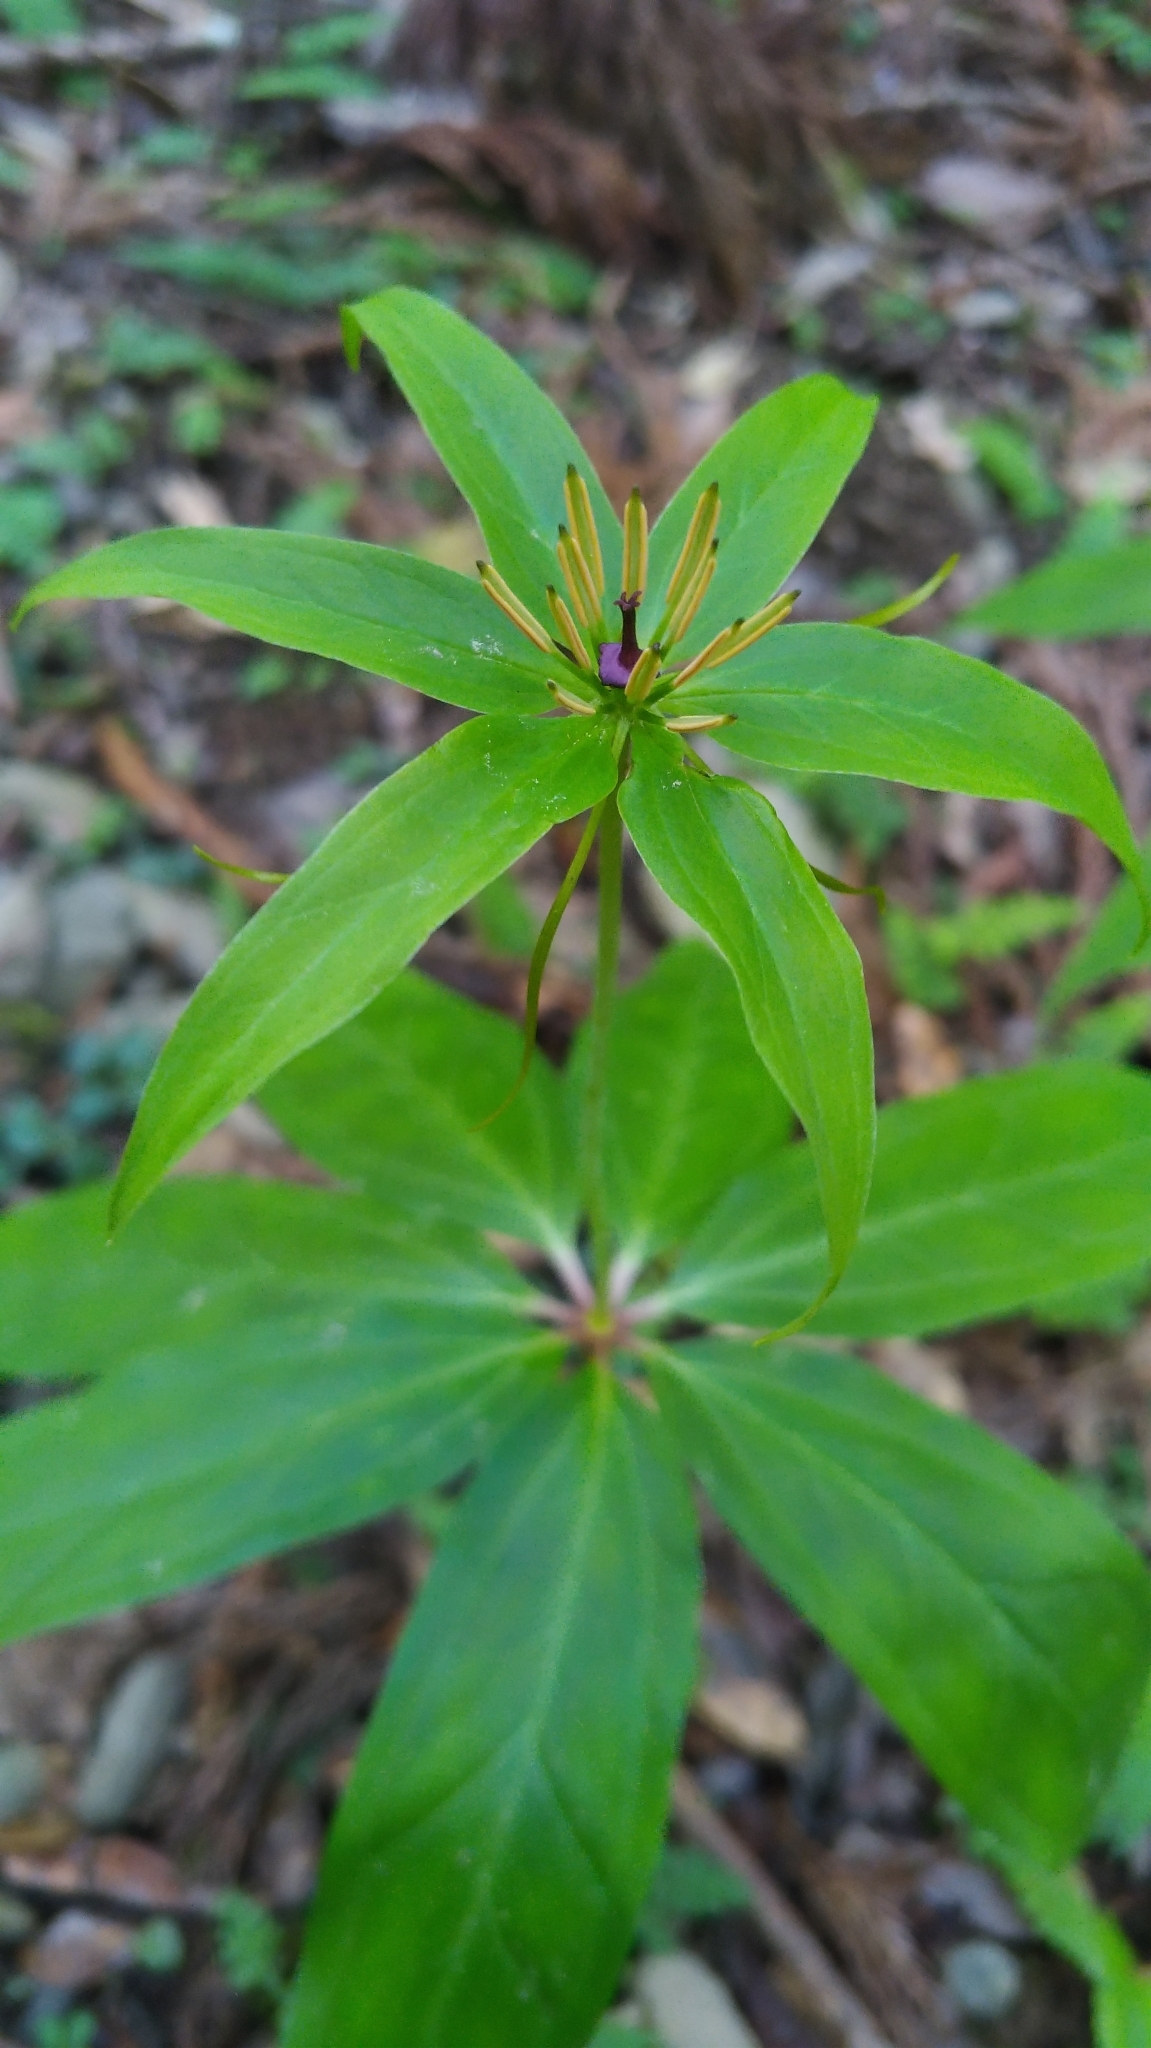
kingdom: Plantae
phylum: Tracheophyta
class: Liliopsida
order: Liliales
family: Melanthiaceae
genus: Paris
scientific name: Paris polyphylla
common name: Love apple
